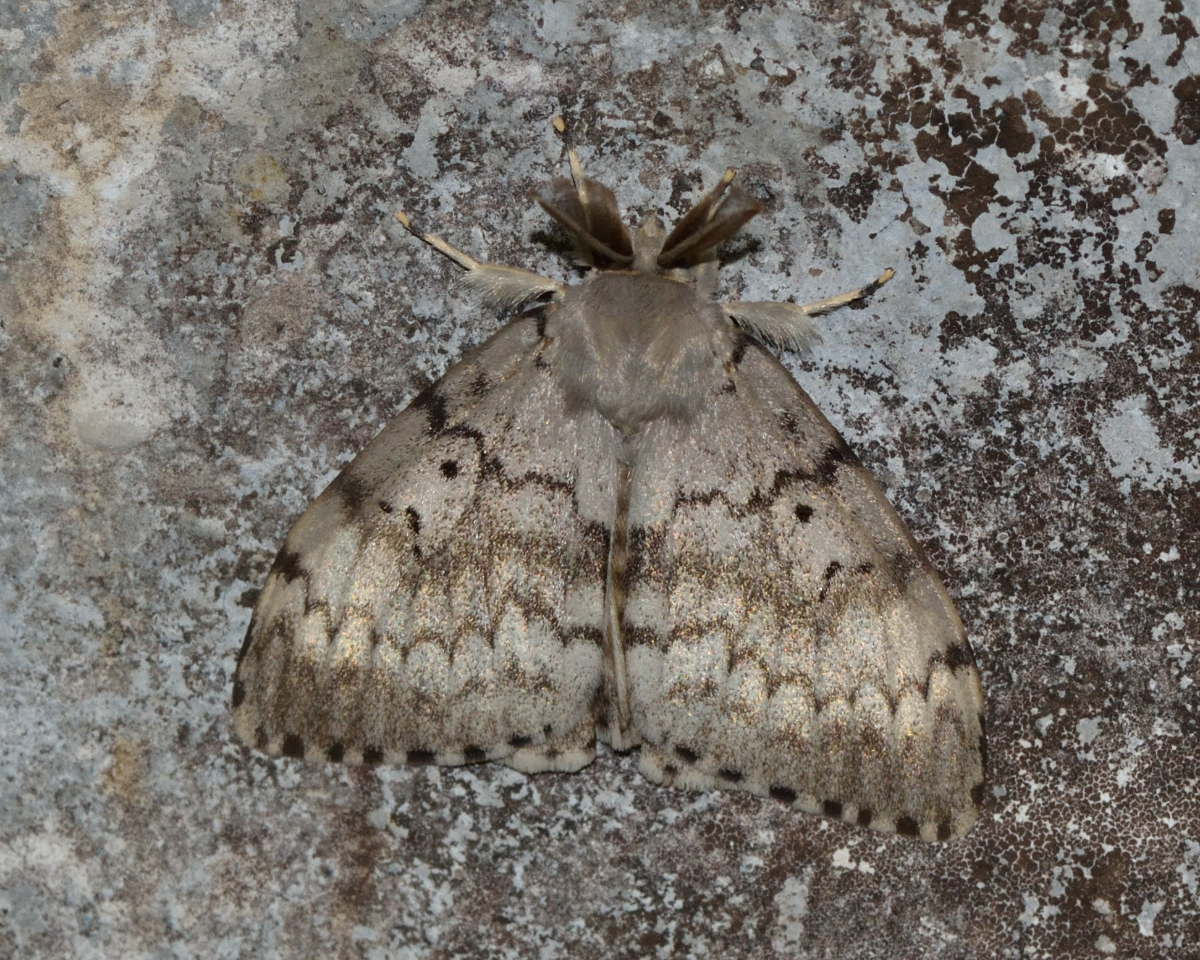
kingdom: Animalia
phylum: Arthropoda
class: Insecta
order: Lepidoptera
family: Erebidae
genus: Lymantria
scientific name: Lymantria dispar
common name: Gypsy moth
